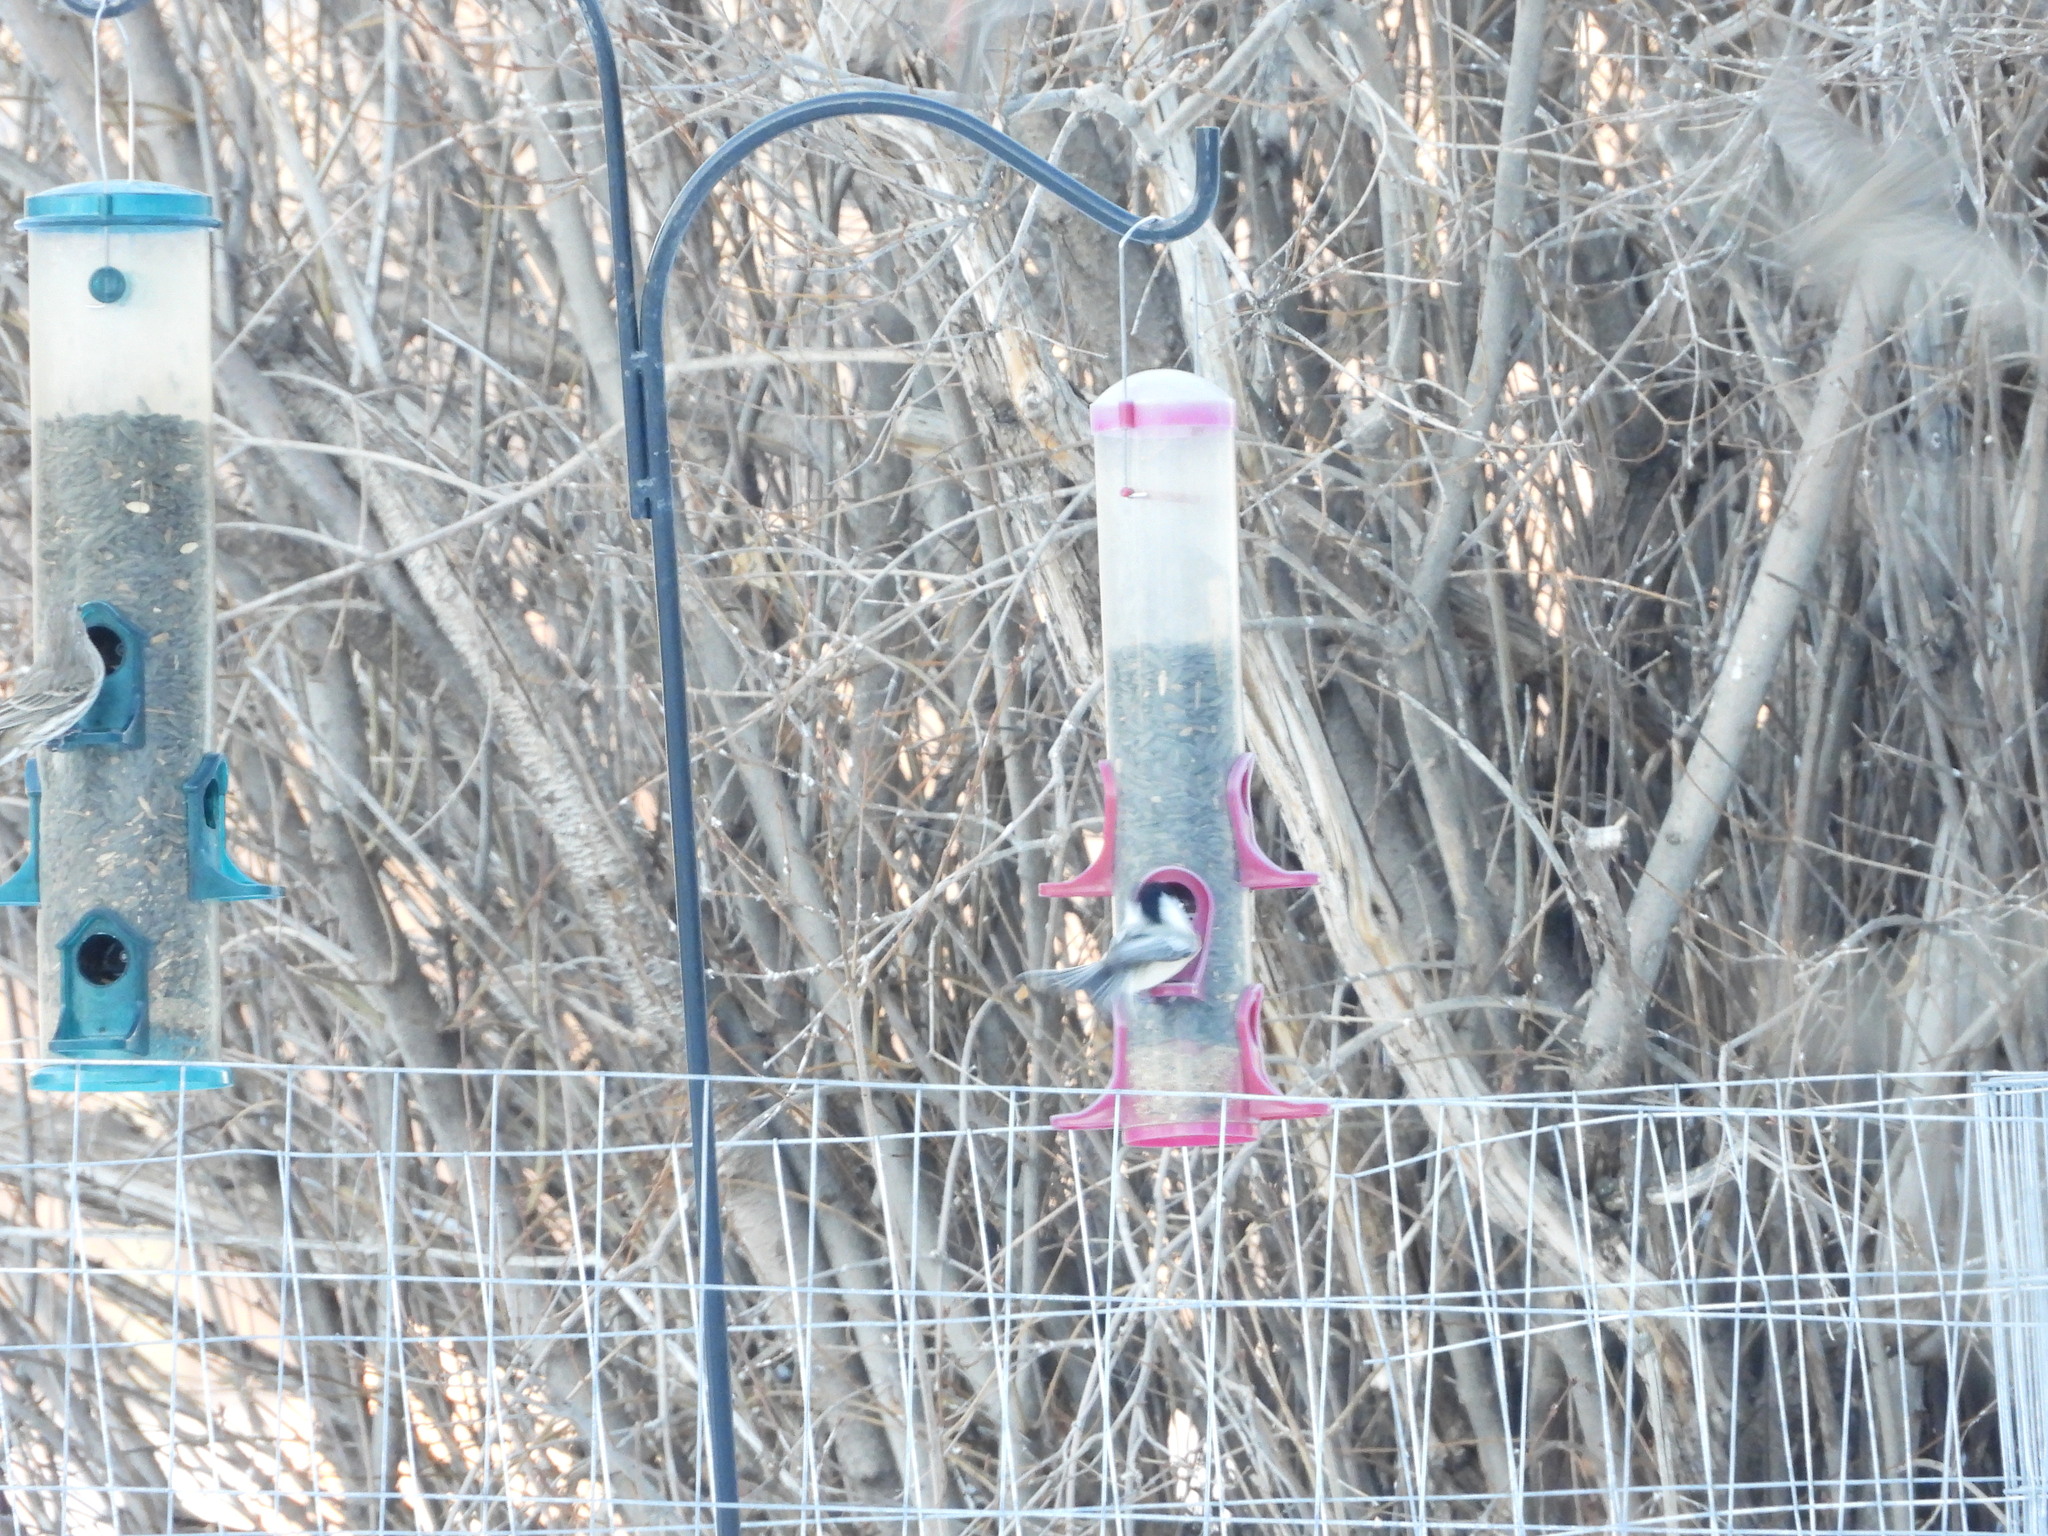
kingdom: Animalia
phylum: Chordata
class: Aves
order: Passeriformes
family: Paridae
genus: Poecile
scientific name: Poecile atricapillus
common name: Black-capped chickadee
